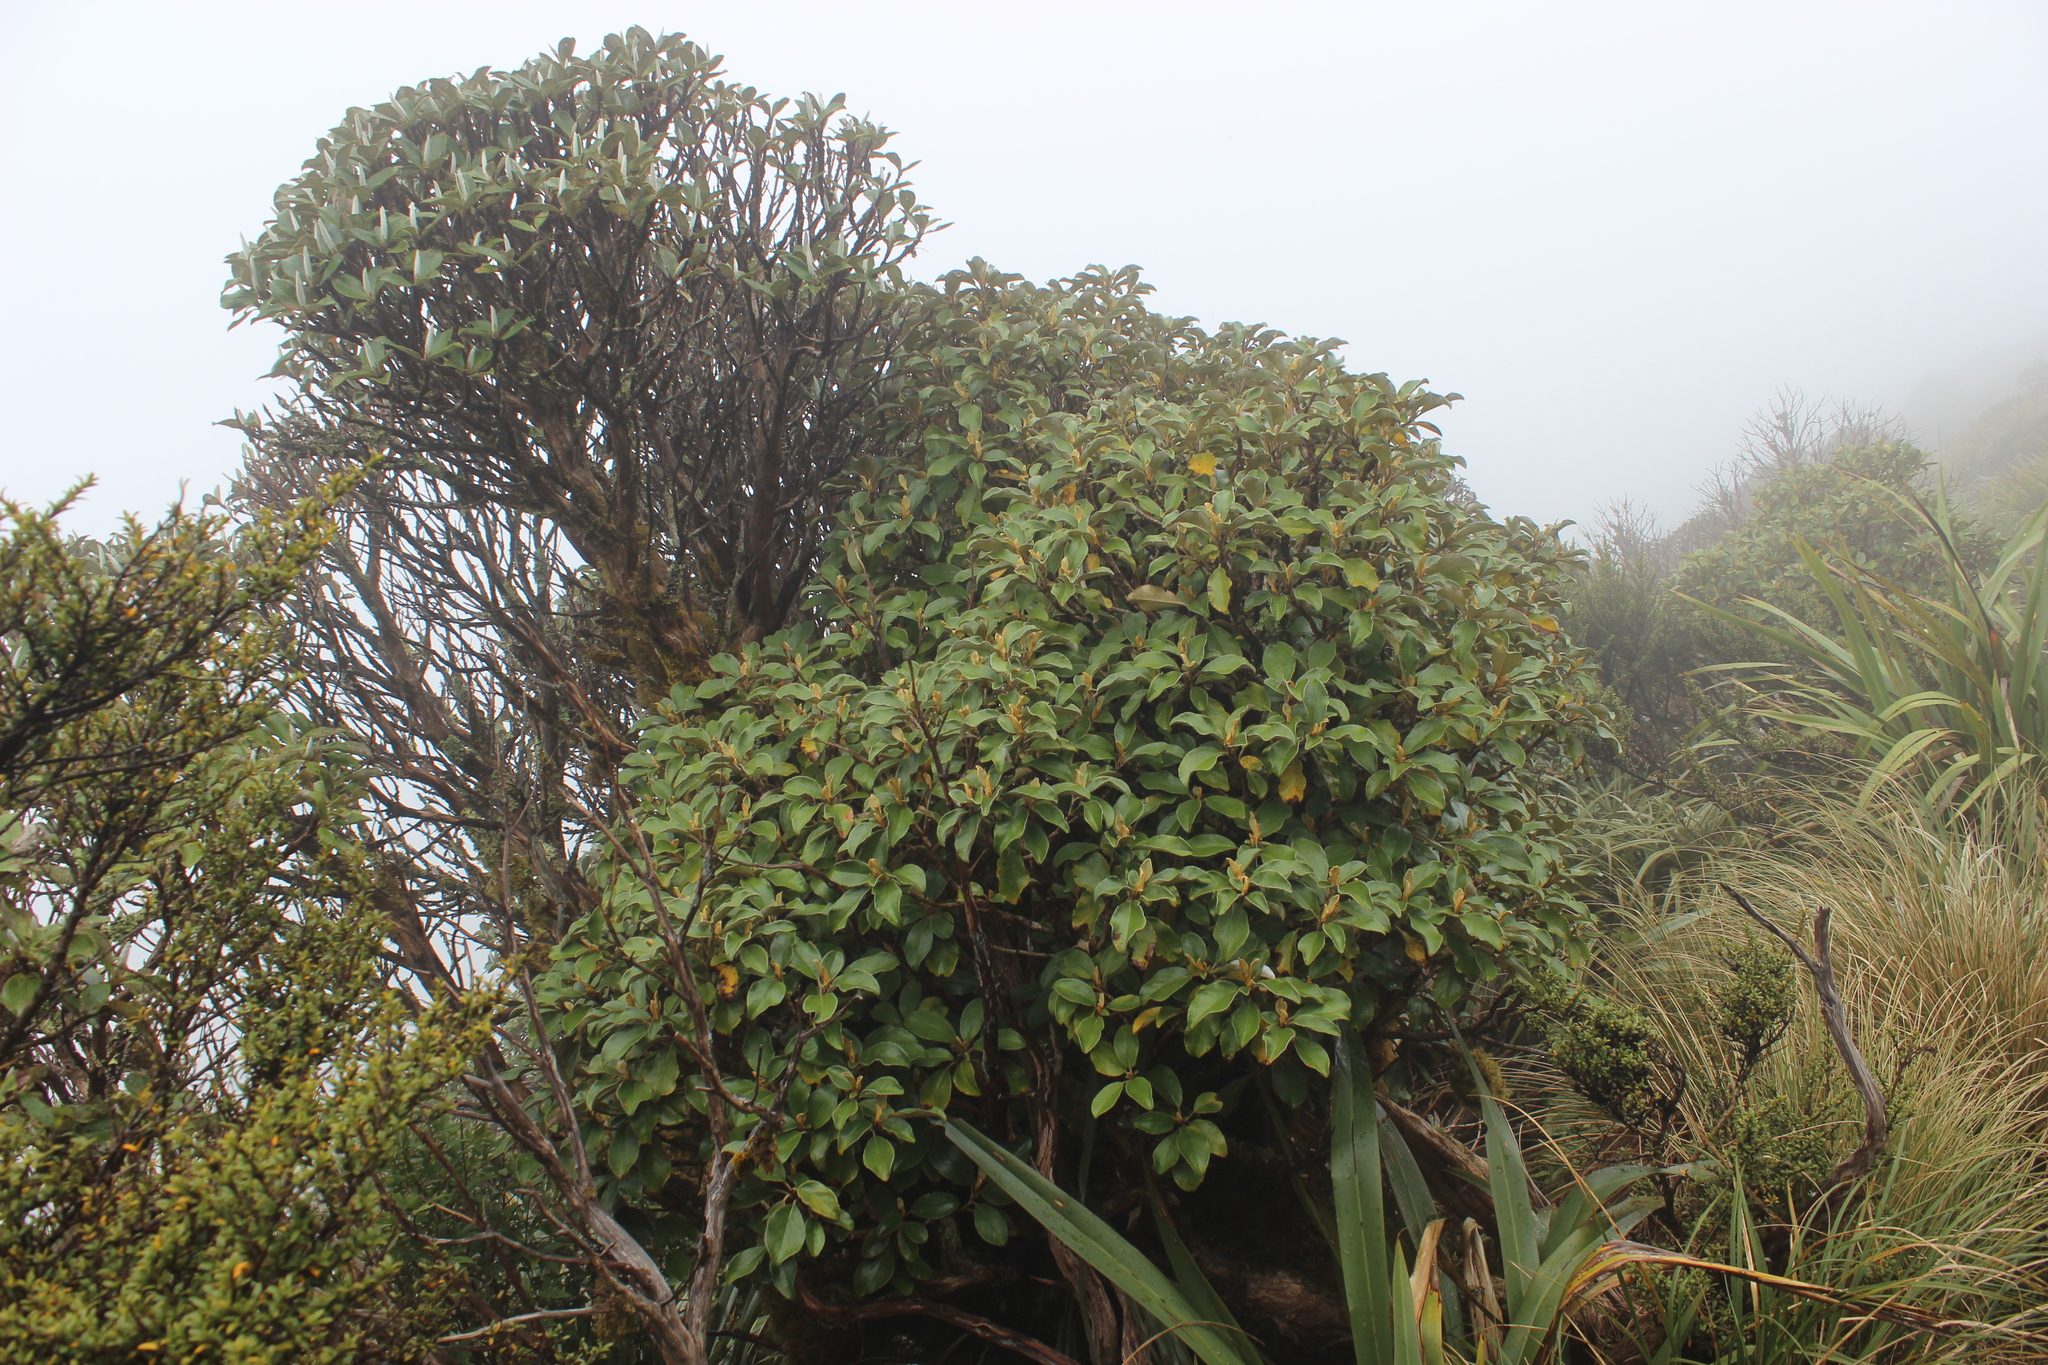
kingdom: Plantae
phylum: Tracheophyta
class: Magnoliopsida
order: Asterales
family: Asteraceae
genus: Brachyglottis
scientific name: Brachyglottis elaeagnifolia
